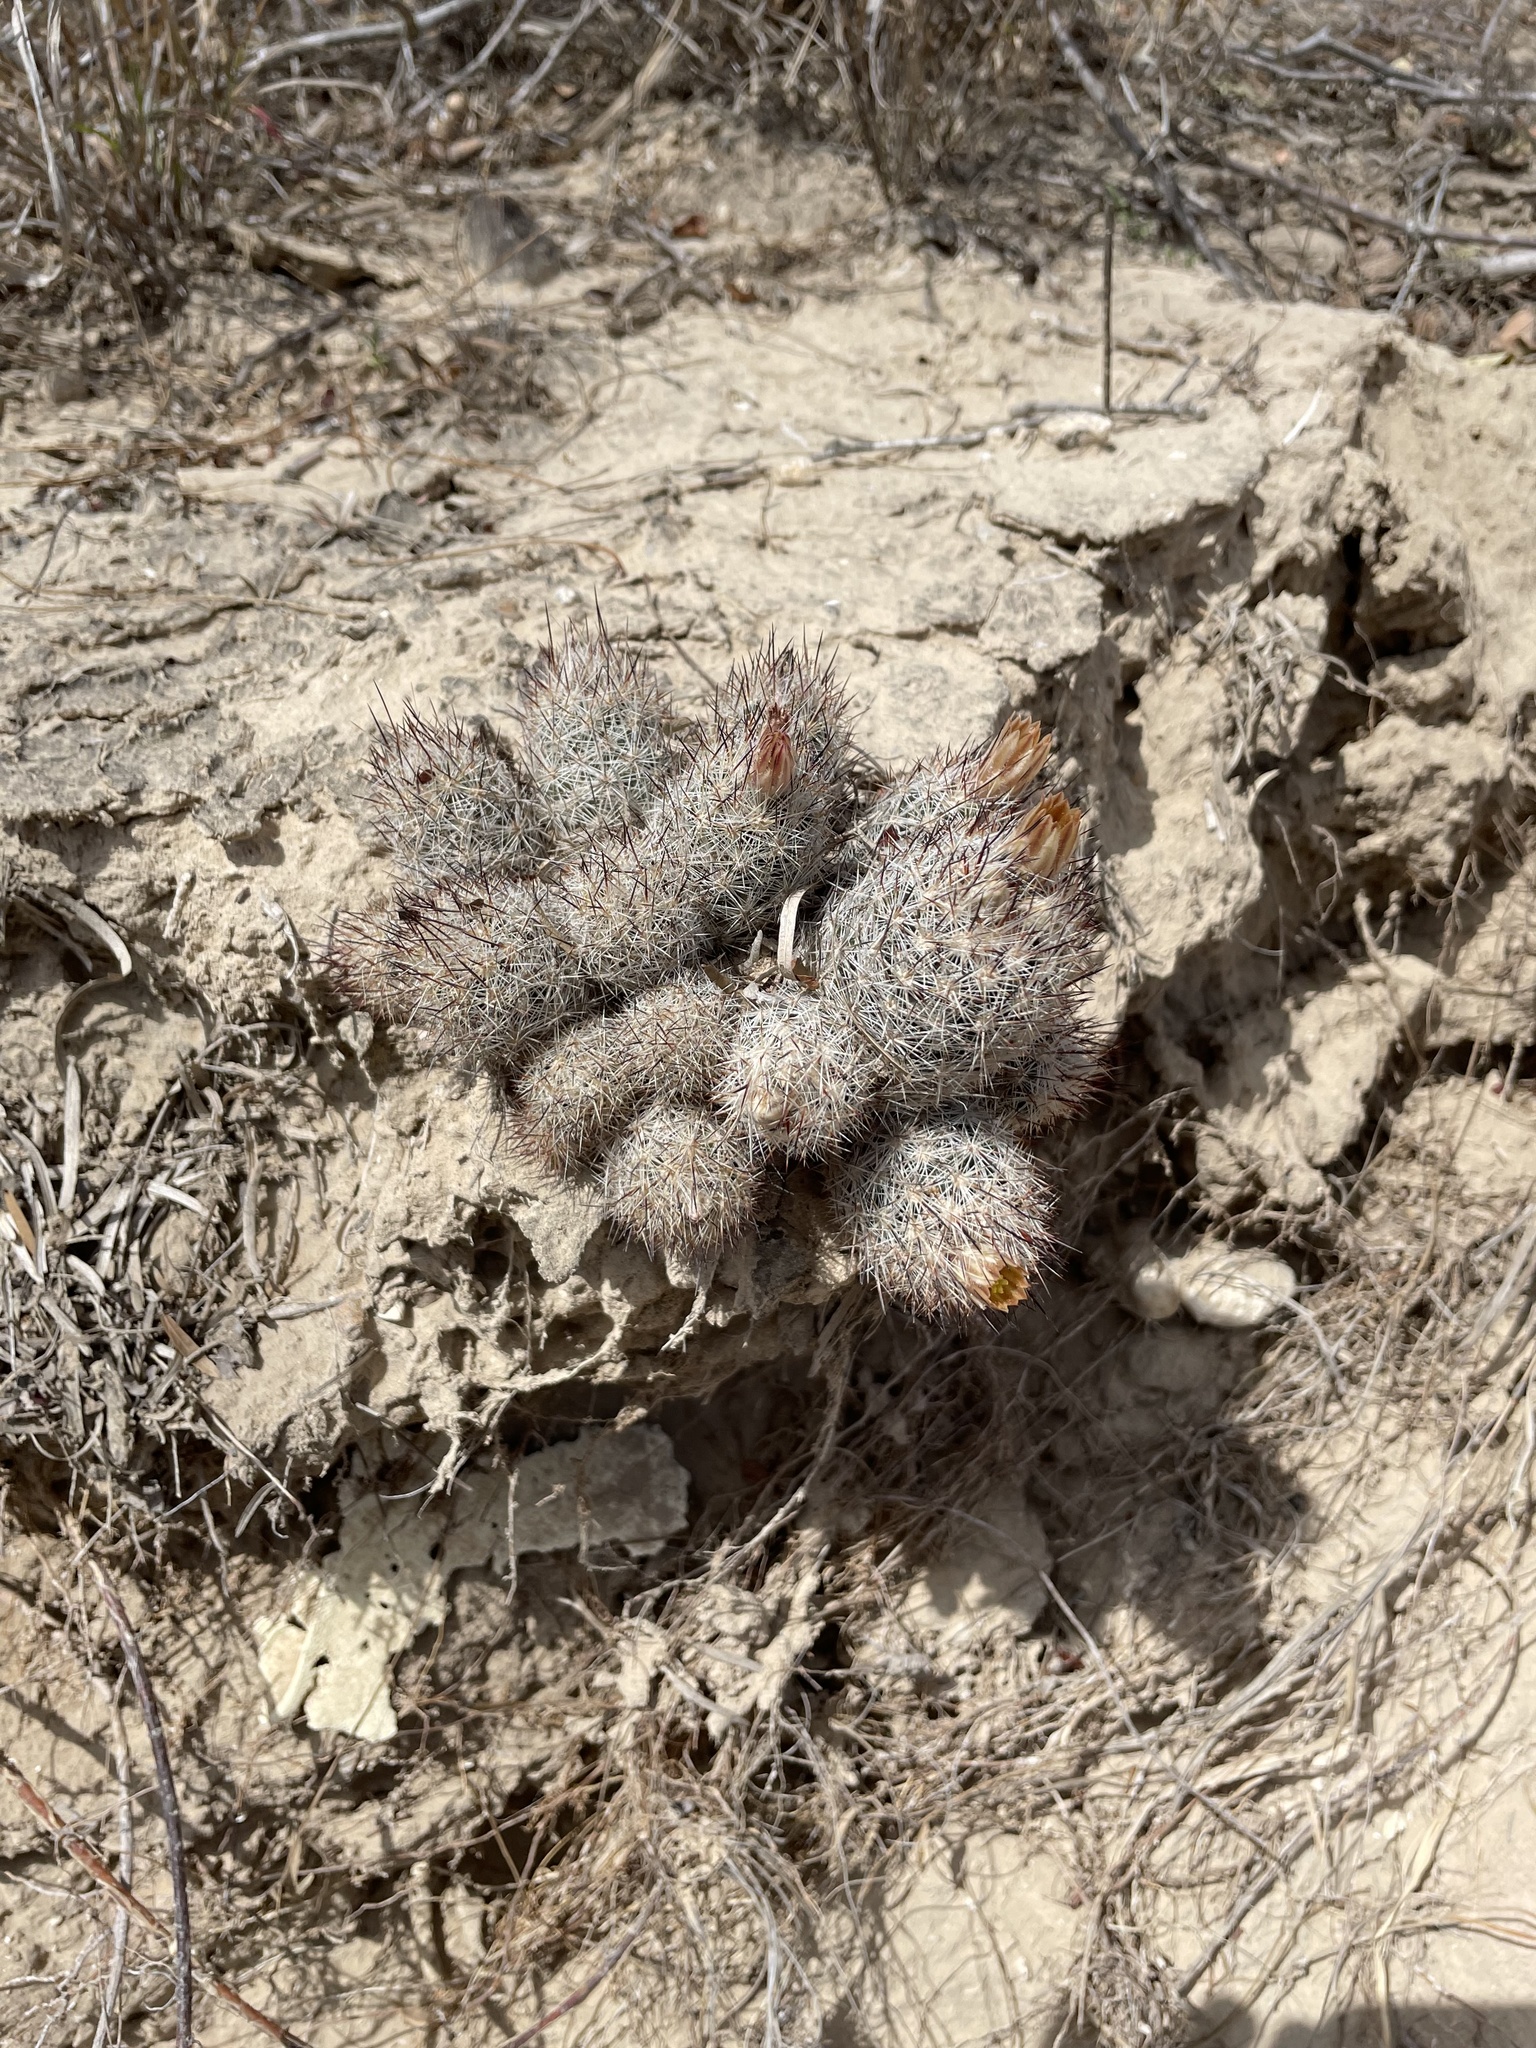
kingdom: Plantae
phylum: Tracheophyta
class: Magnoliopsida
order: Caryophyllales
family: Cactaceae
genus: Pelecyphora
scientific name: Pelecyphora emskoetteriana
